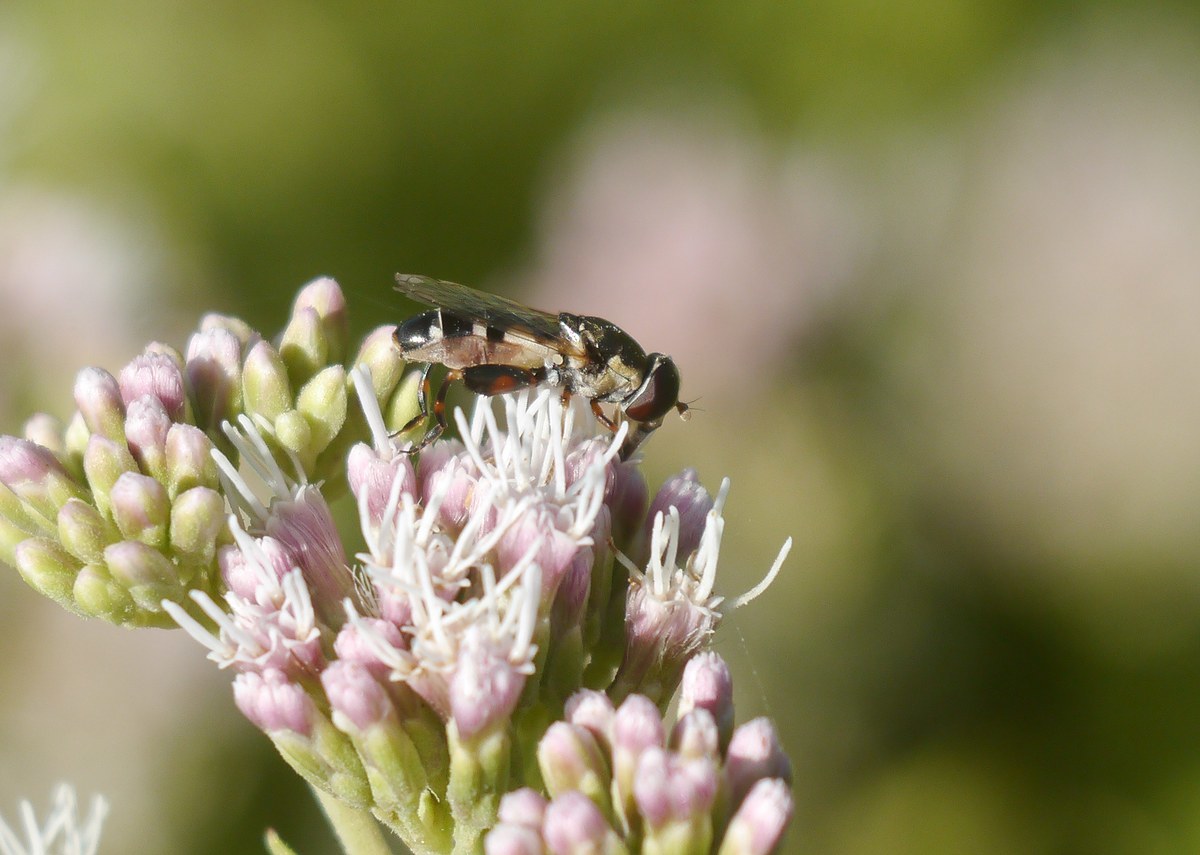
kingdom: Animalia
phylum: Arthropoda
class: Insecta
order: Diptera
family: Syrphidae
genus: Syritta
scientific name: Syritta pipiens
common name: Hover fly
